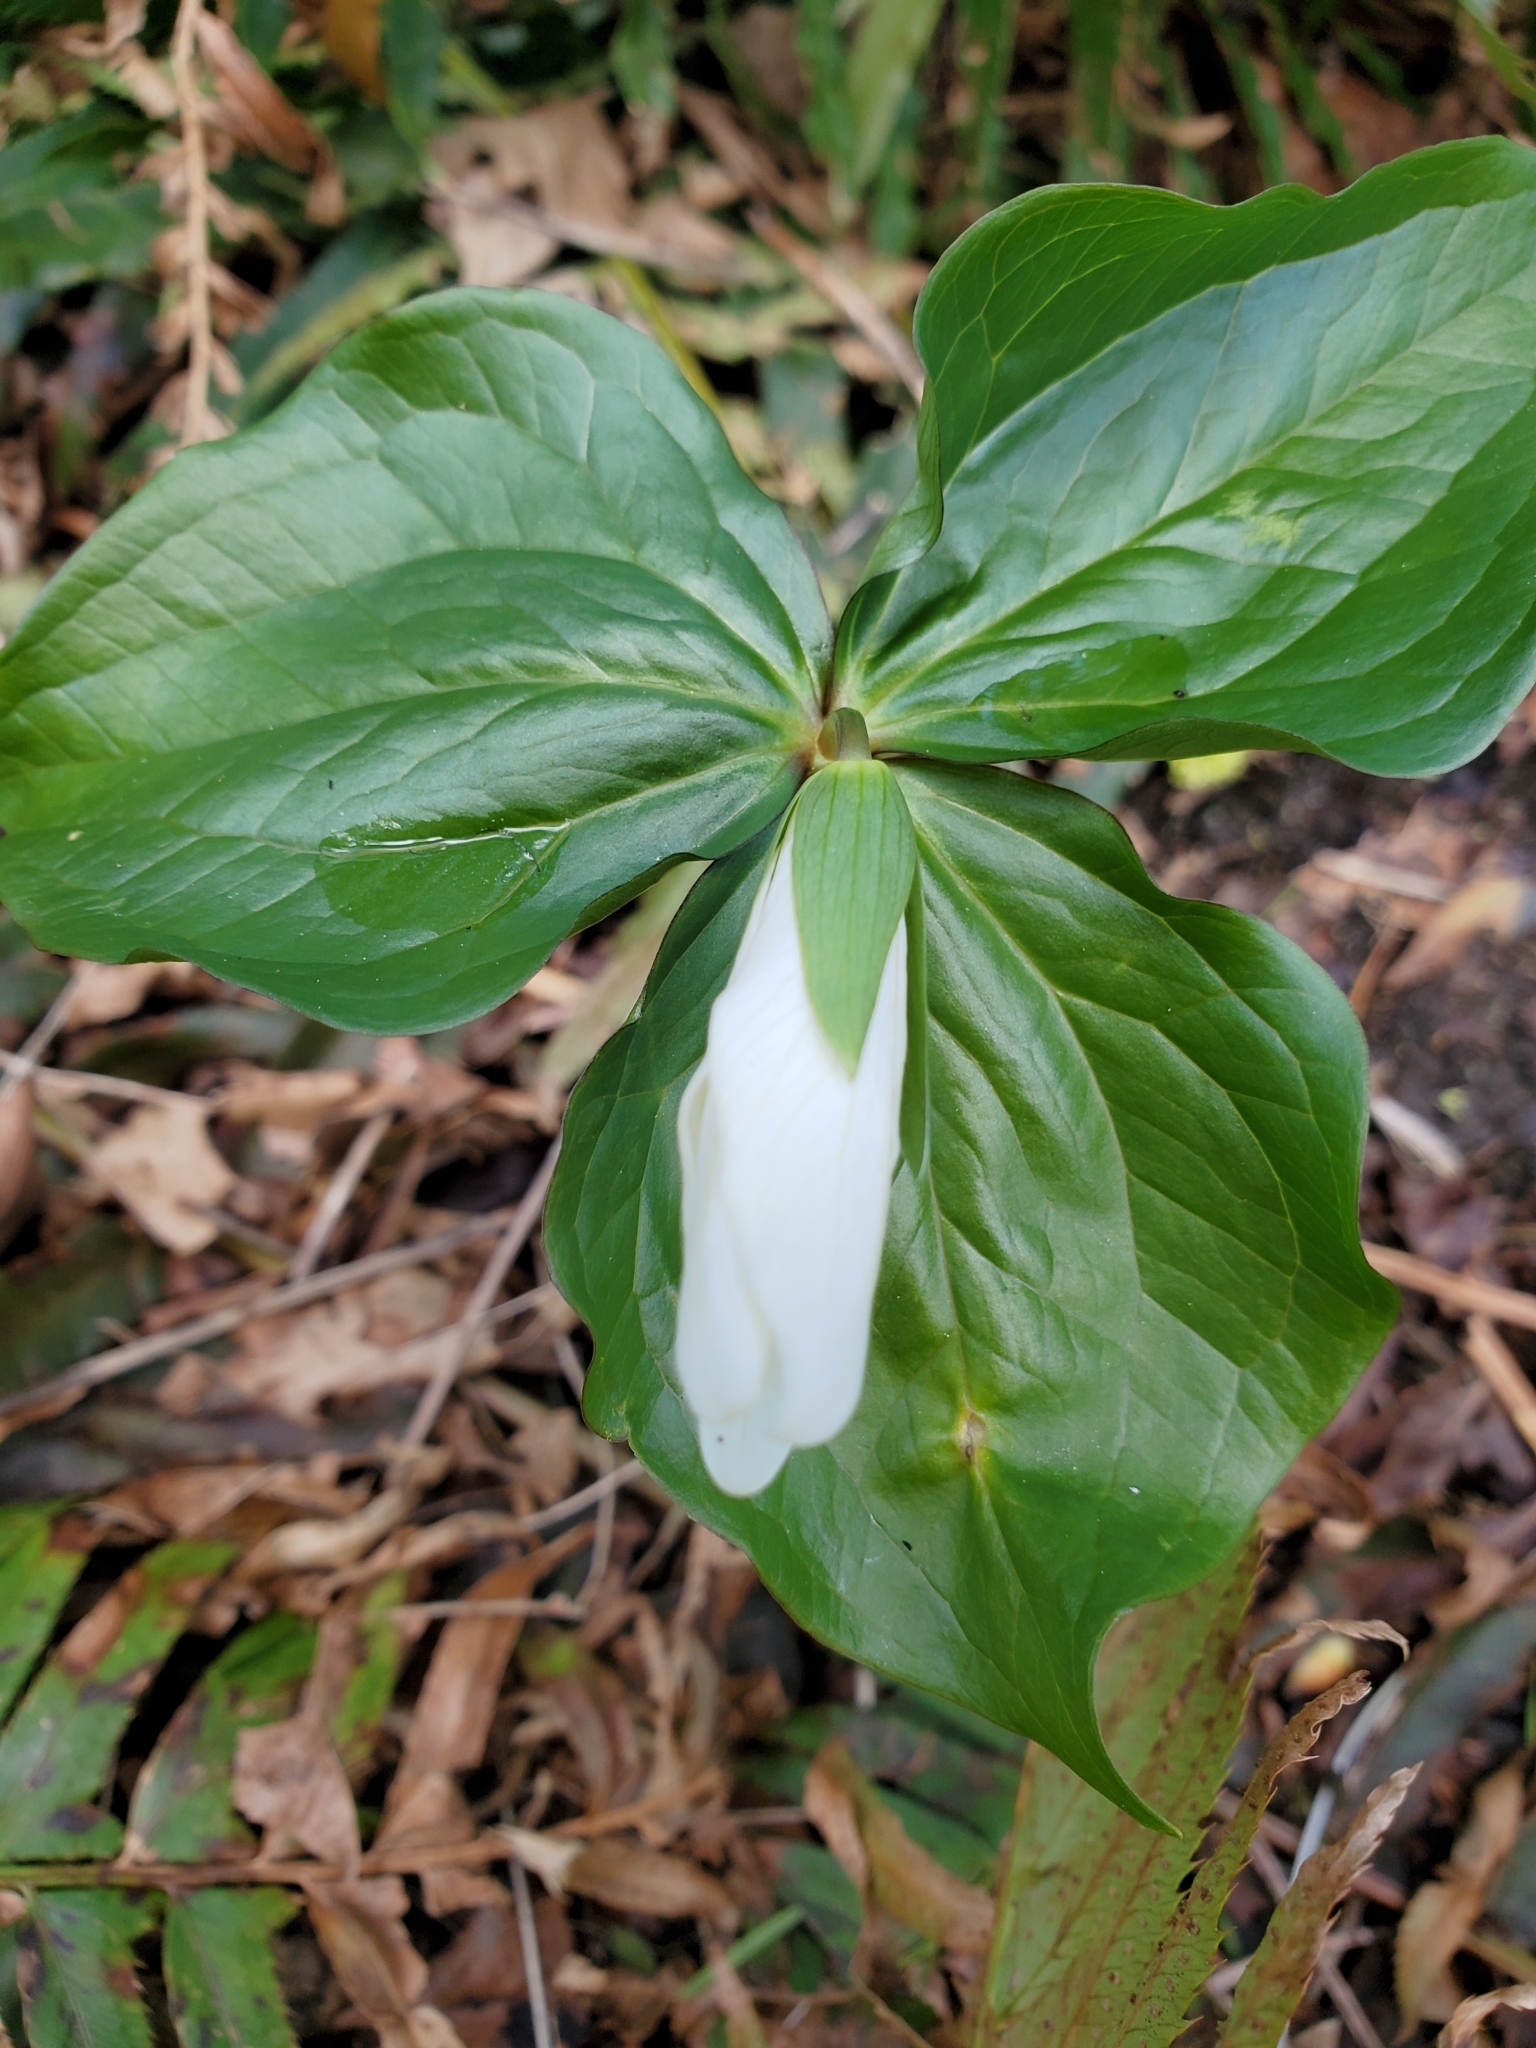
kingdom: Plantae
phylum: Tracheophyta
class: Liliopsida
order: Liliales
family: Melanthiaceae
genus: Trillium
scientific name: Trillium ovatum
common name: Pacific trillium
